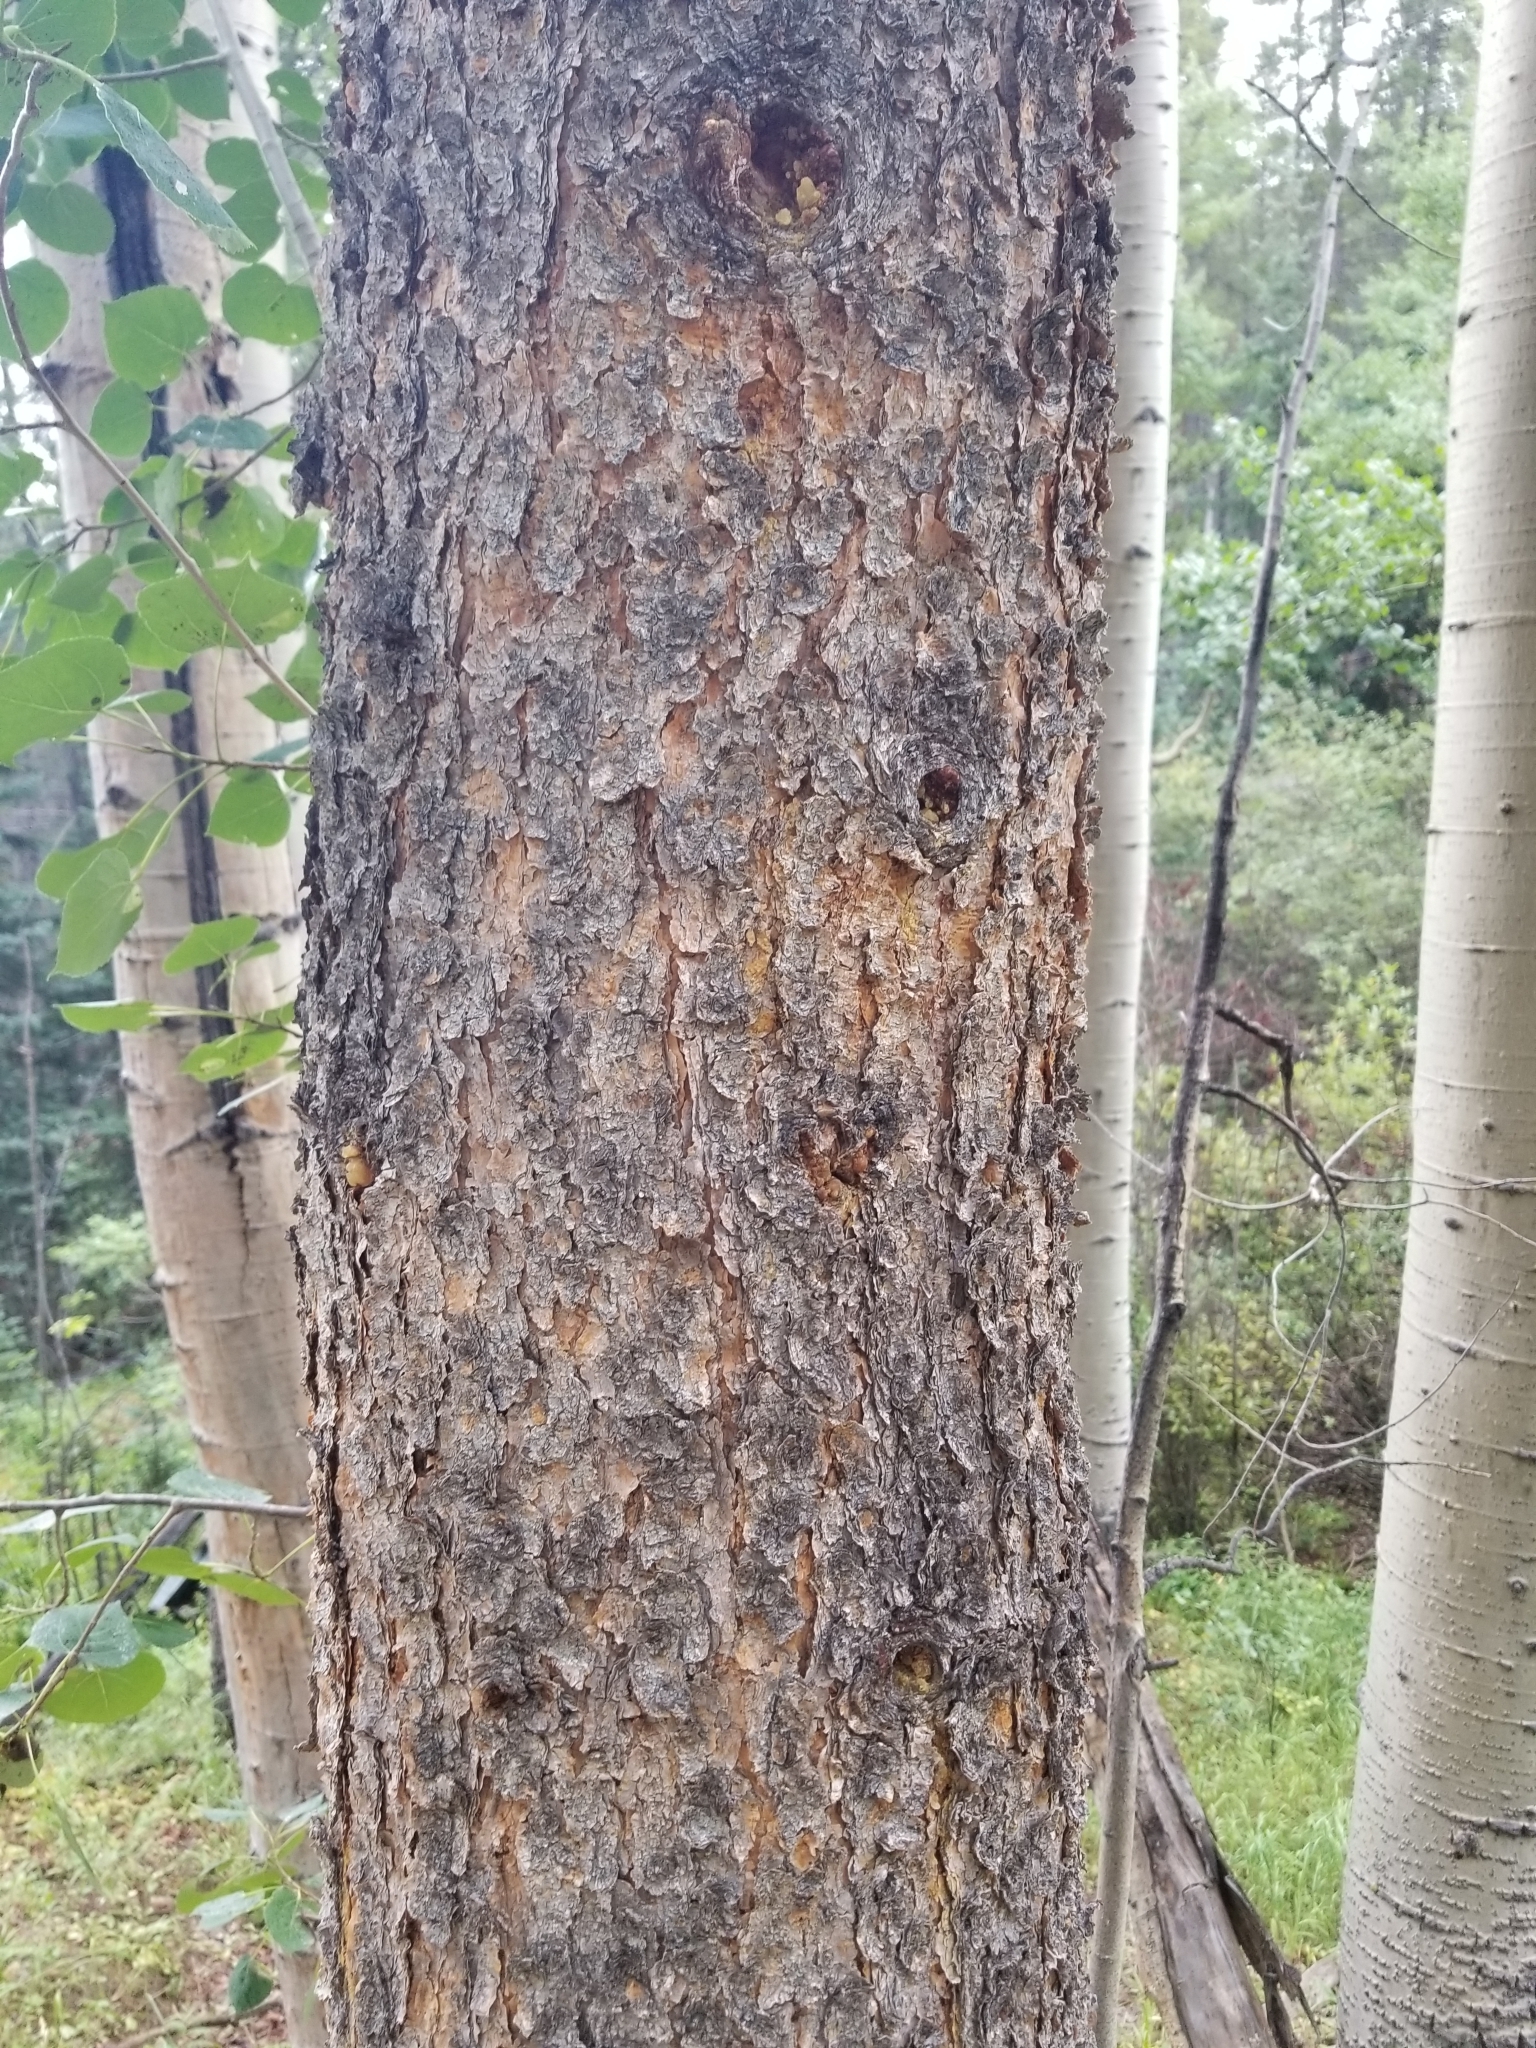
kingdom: Plantae
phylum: Tracheophyta
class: Pinopsida
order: Pinales
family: Pinaceae
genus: Pinus
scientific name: Pinus contorta
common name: Lodgepole pine
